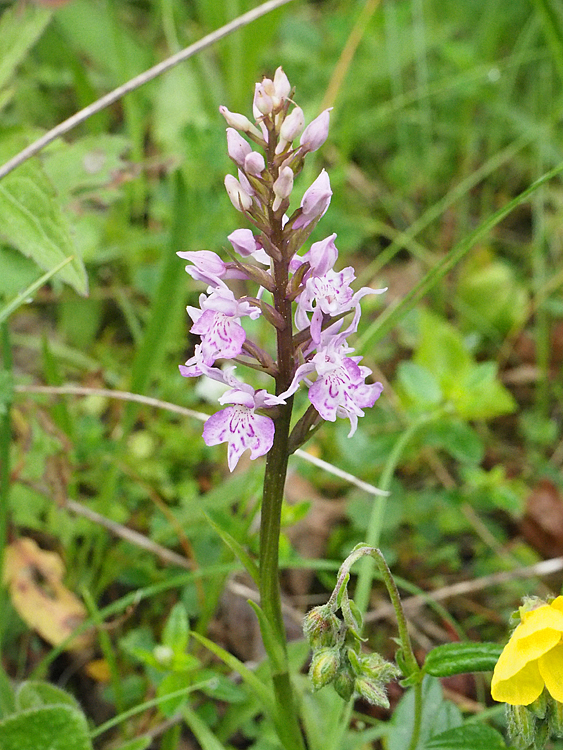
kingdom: Plantae
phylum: Tracheophyta
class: Liliopsida
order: Asparagales
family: Orchidaceae
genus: Dactylorhiza
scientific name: Dactylorhiza maculata
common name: Heath spotted-orchid
